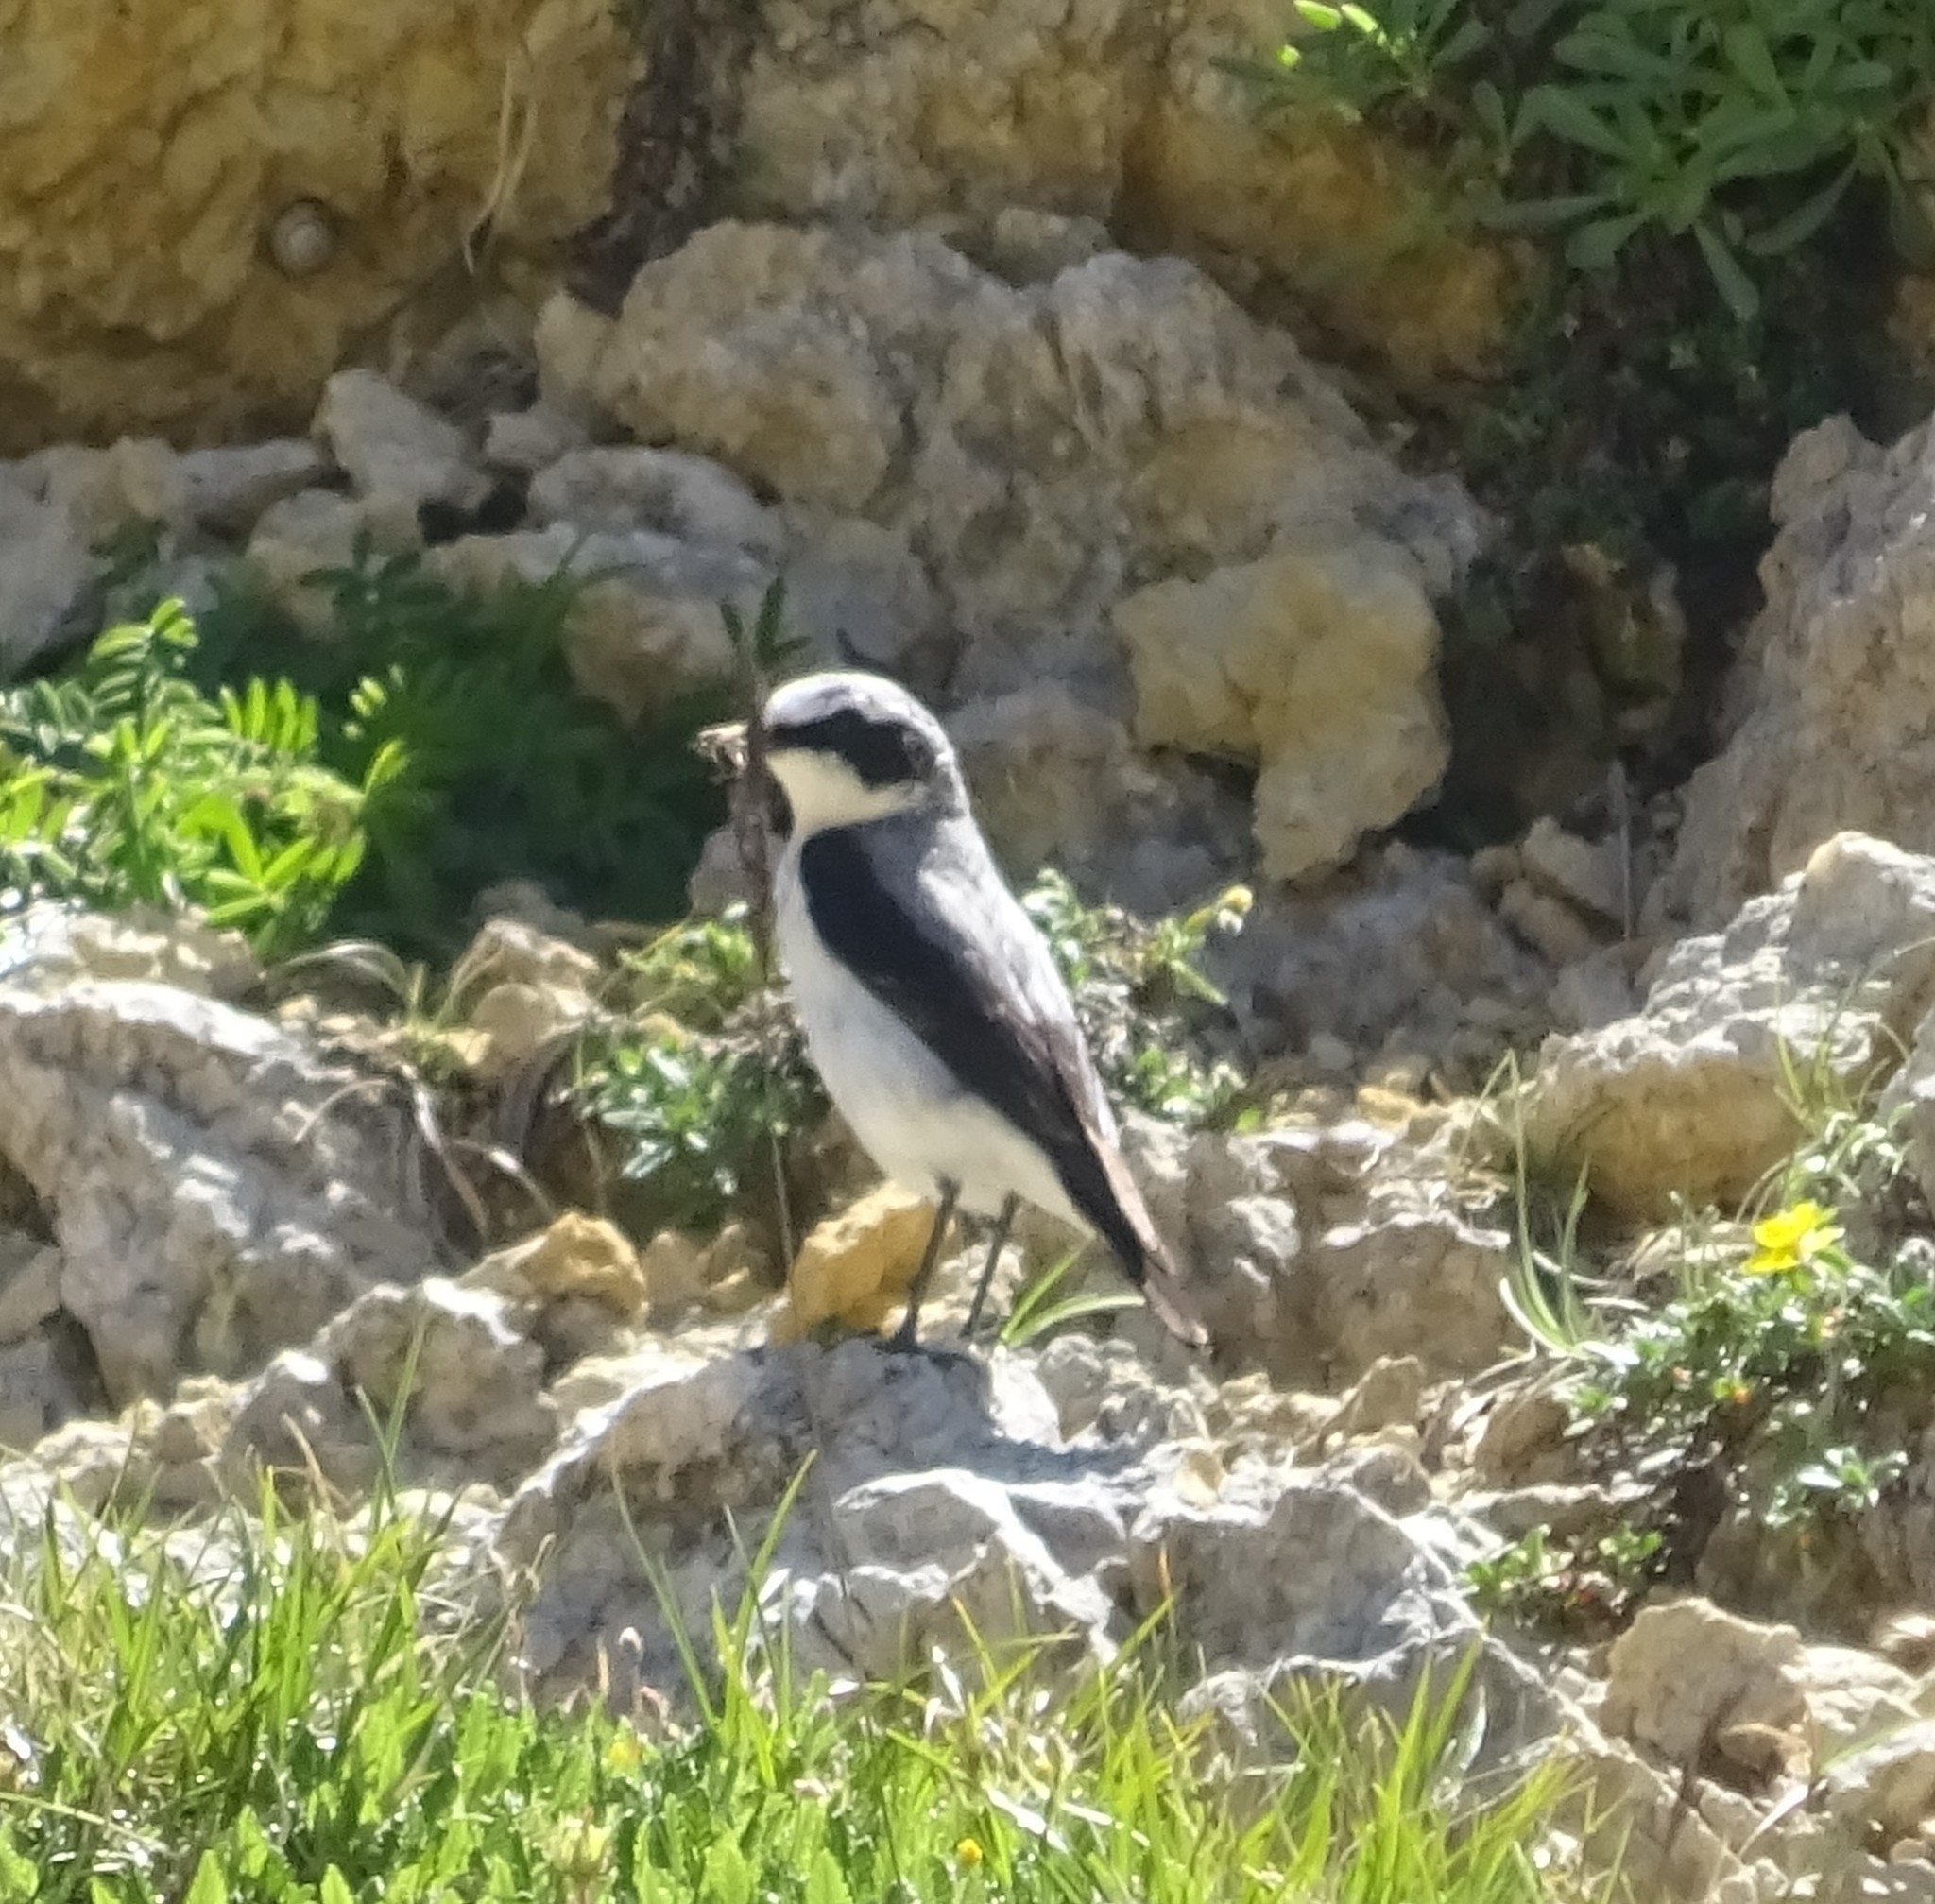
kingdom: Animalia
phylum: Chordata
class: Aves
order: Passeriformes
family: Muscicapidae
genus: Oenanthe
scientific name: Oenanthe oenanthe
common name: Northern wheatear
